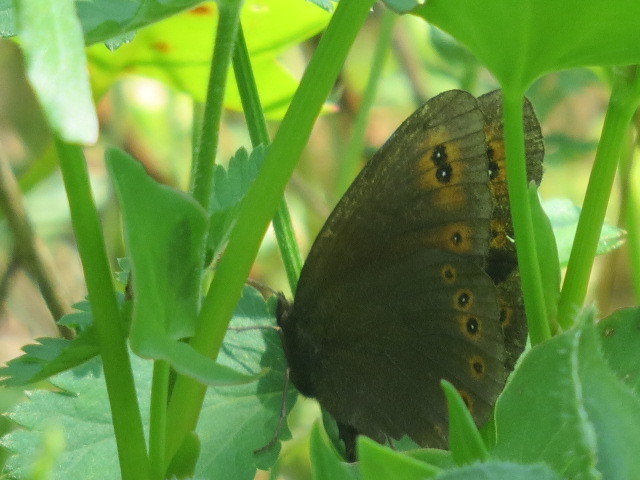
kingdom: Animalia
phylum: Arthropoda
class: Insecta
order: Lepidoptera
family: Nymphalidae
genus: Erebia
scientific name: Erebia medusa
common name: Woodland ringlet
